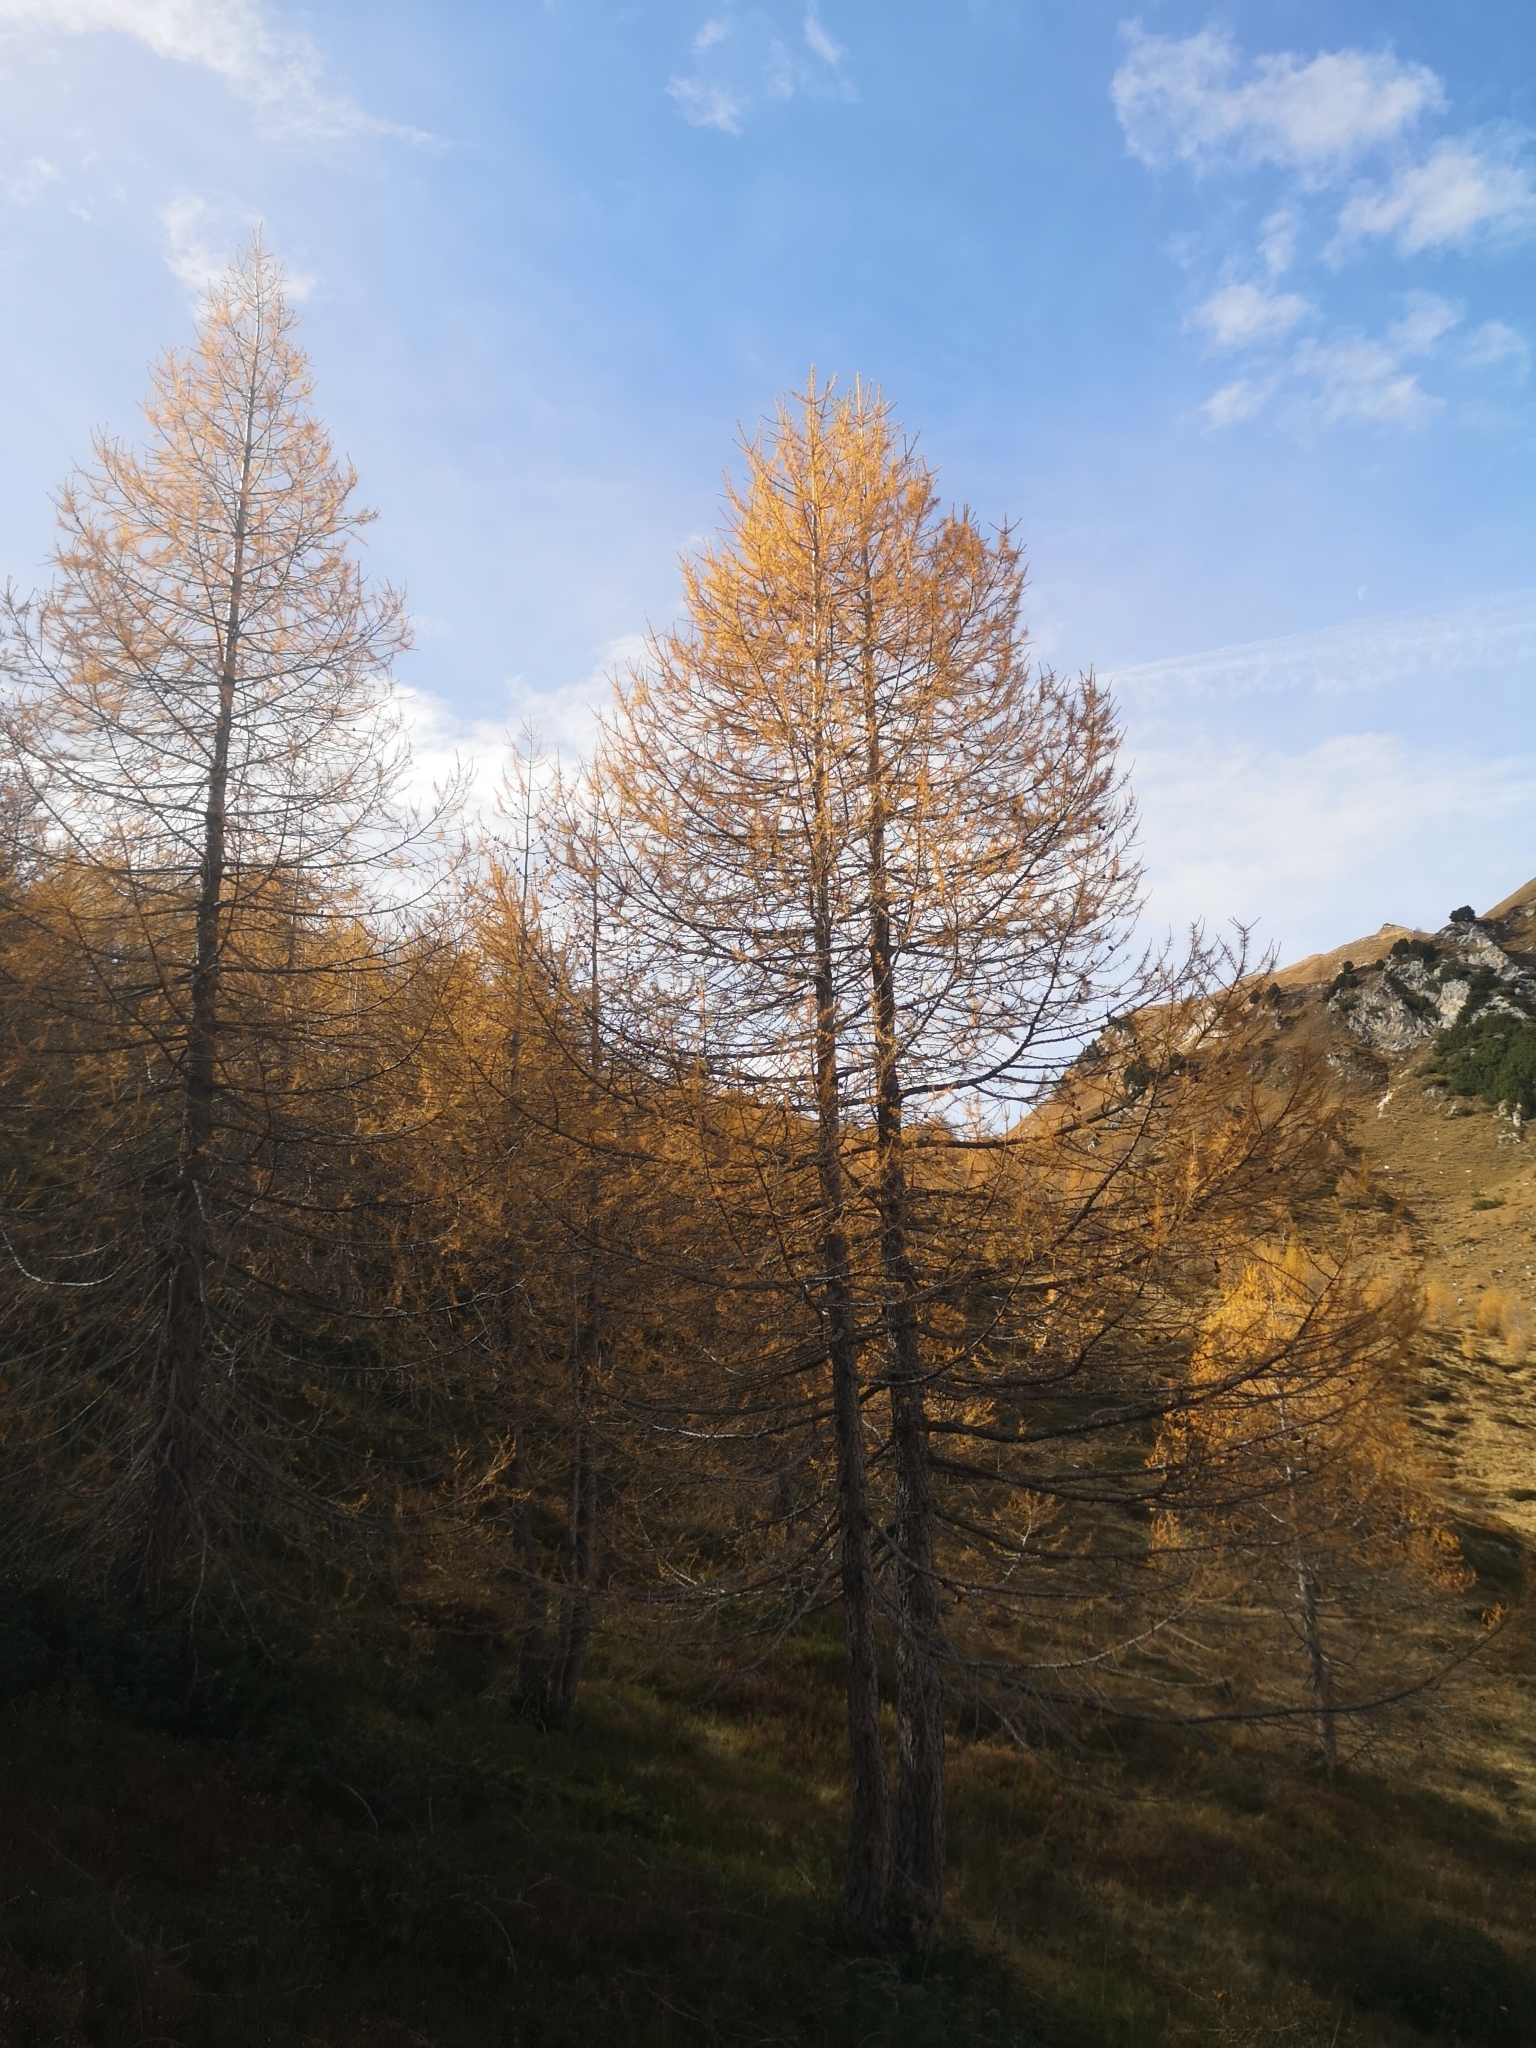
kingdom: Plantae
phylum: Tracheophyta
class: Pinopsida
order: Pinales
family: Pinaceae
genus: Larix
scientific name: Larix decidua
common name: European larch
